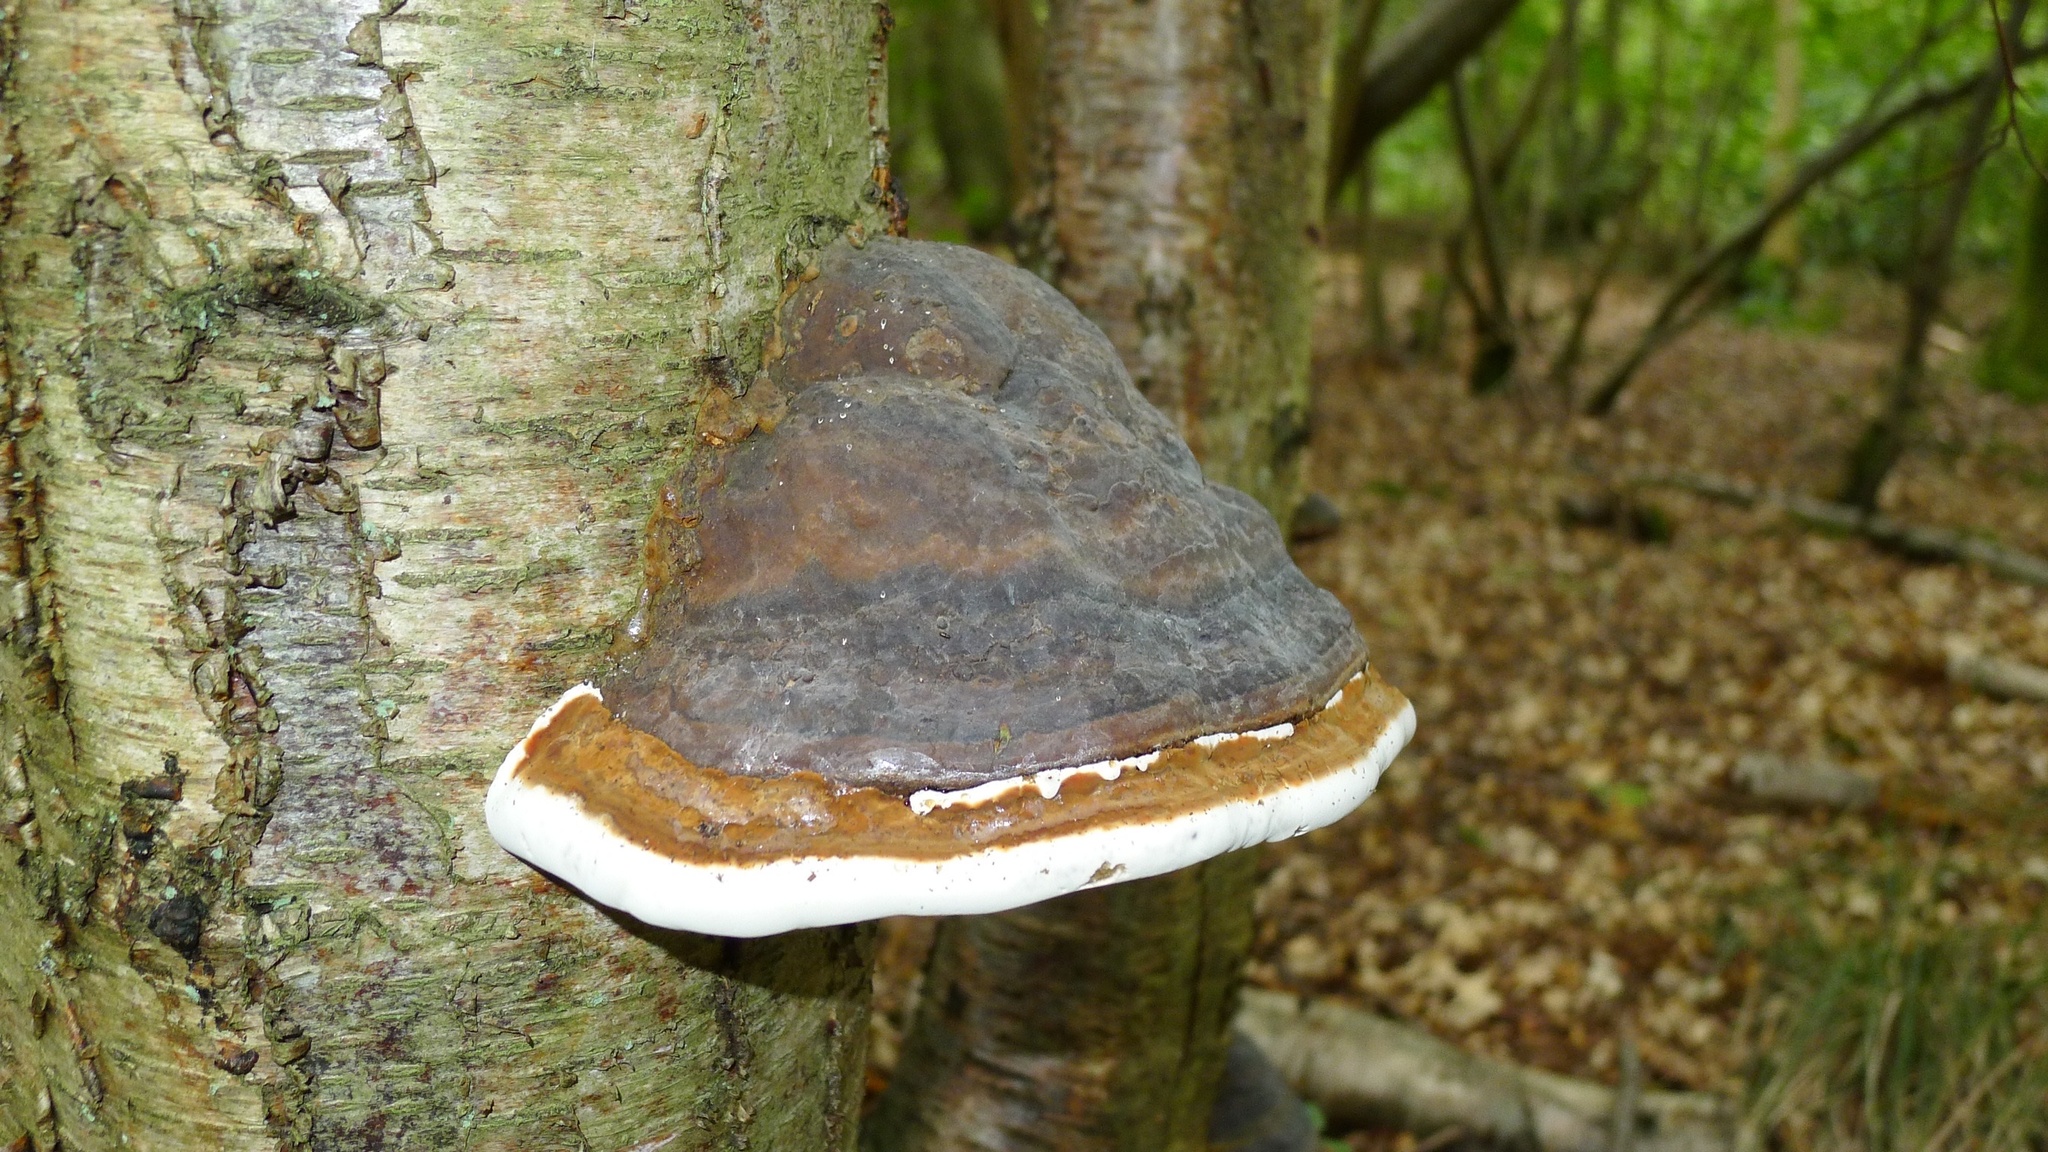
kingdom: Fungi
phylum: Basidiomycota
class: Agaricomycetes
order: Polyporales
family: Polyporaceae
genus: Fomes
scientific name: Fomes fomentarius
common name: Hoof fungus
